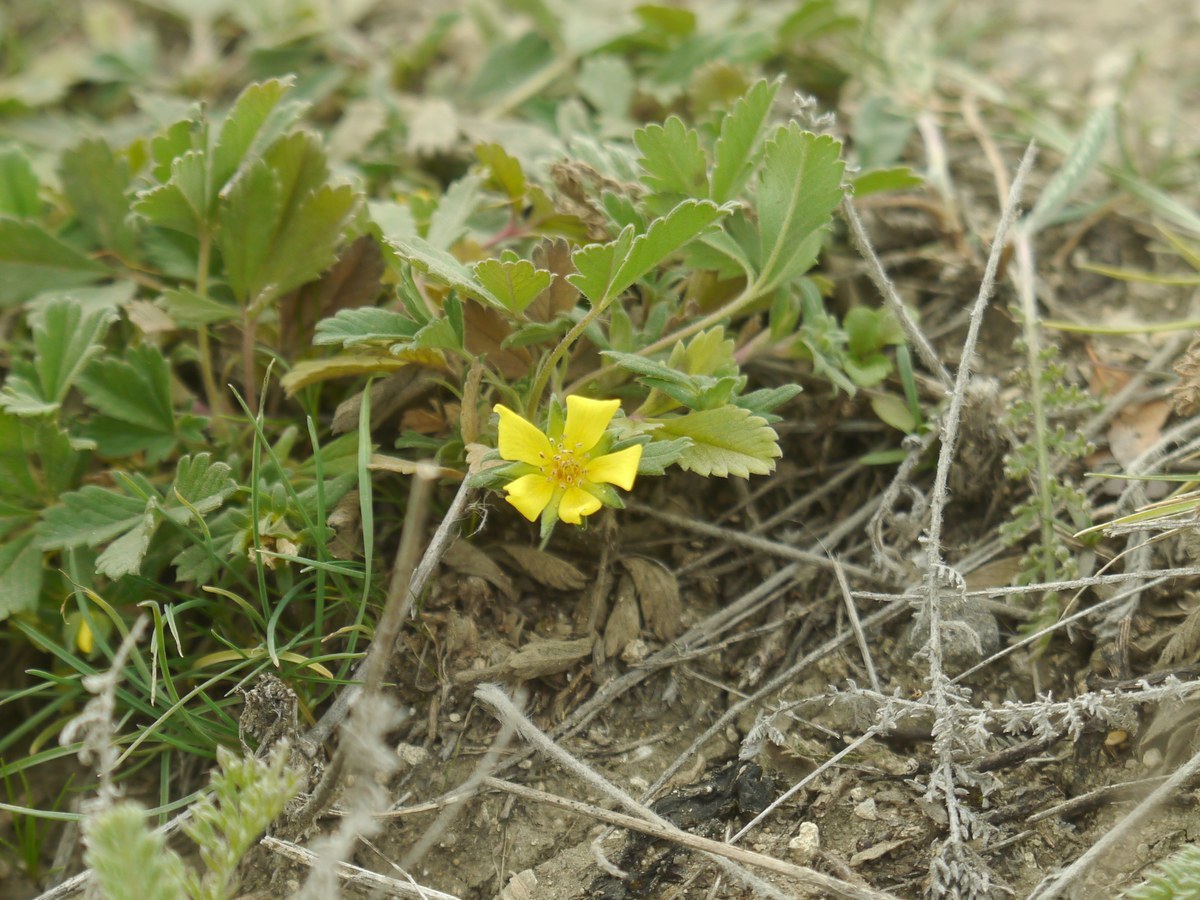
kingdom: Plantae
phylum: Tracheophyta
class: Magnoliopsida
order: Rosales
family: Rosaceae
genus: Potentilla
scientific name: Potentilla incana
